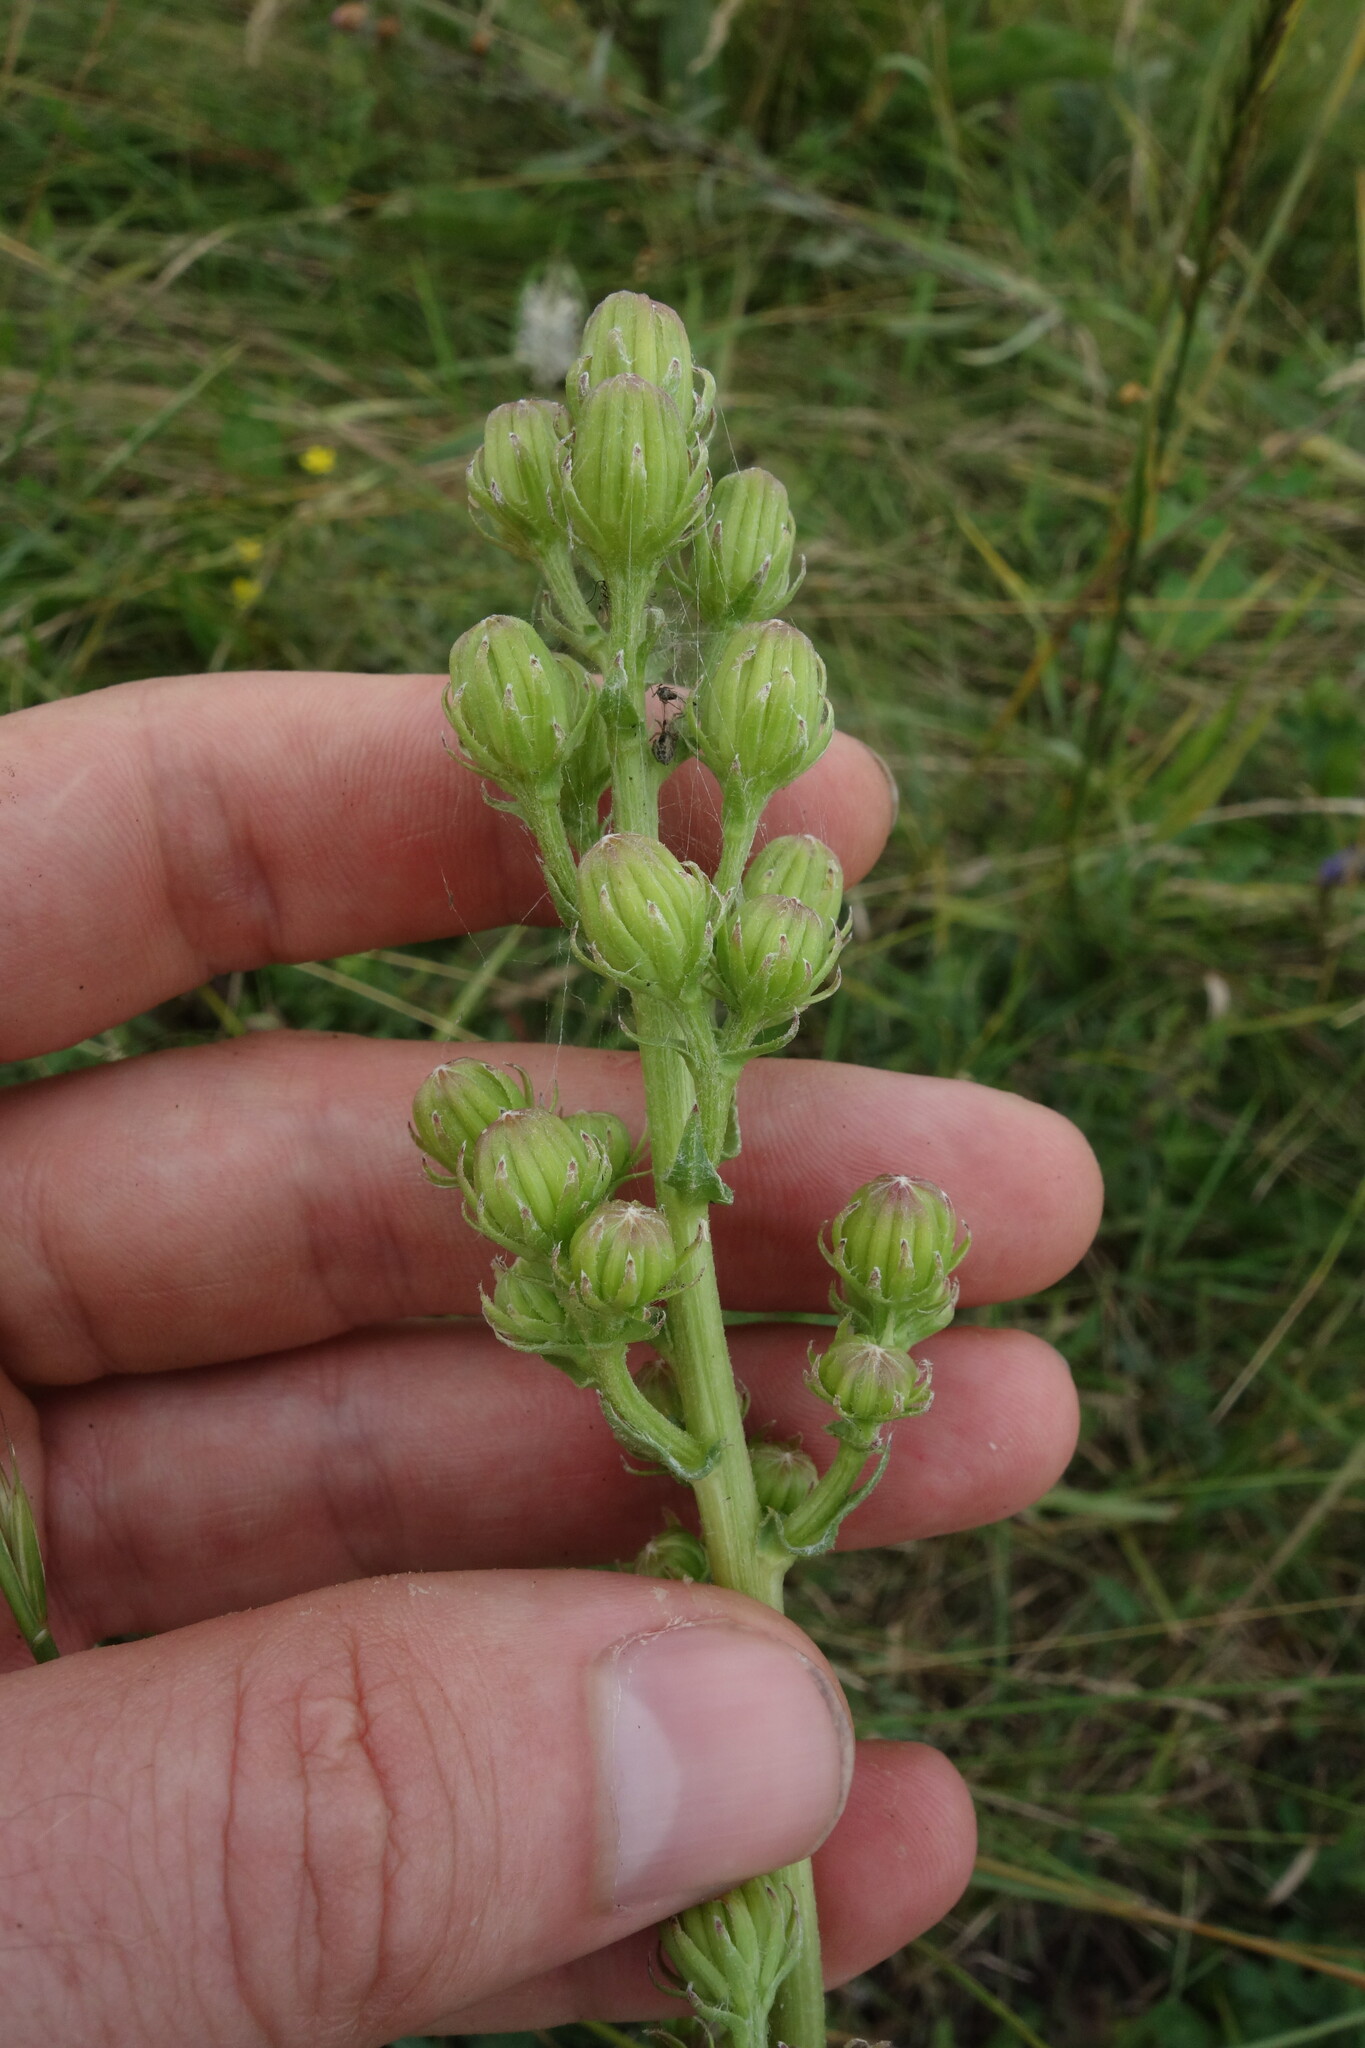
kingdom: Plantae
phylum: Tracheophyta
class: Magnoliopsida
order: Asterales
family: Asteraceae
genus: Jacobaea
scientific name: Jacobaea racemosa
